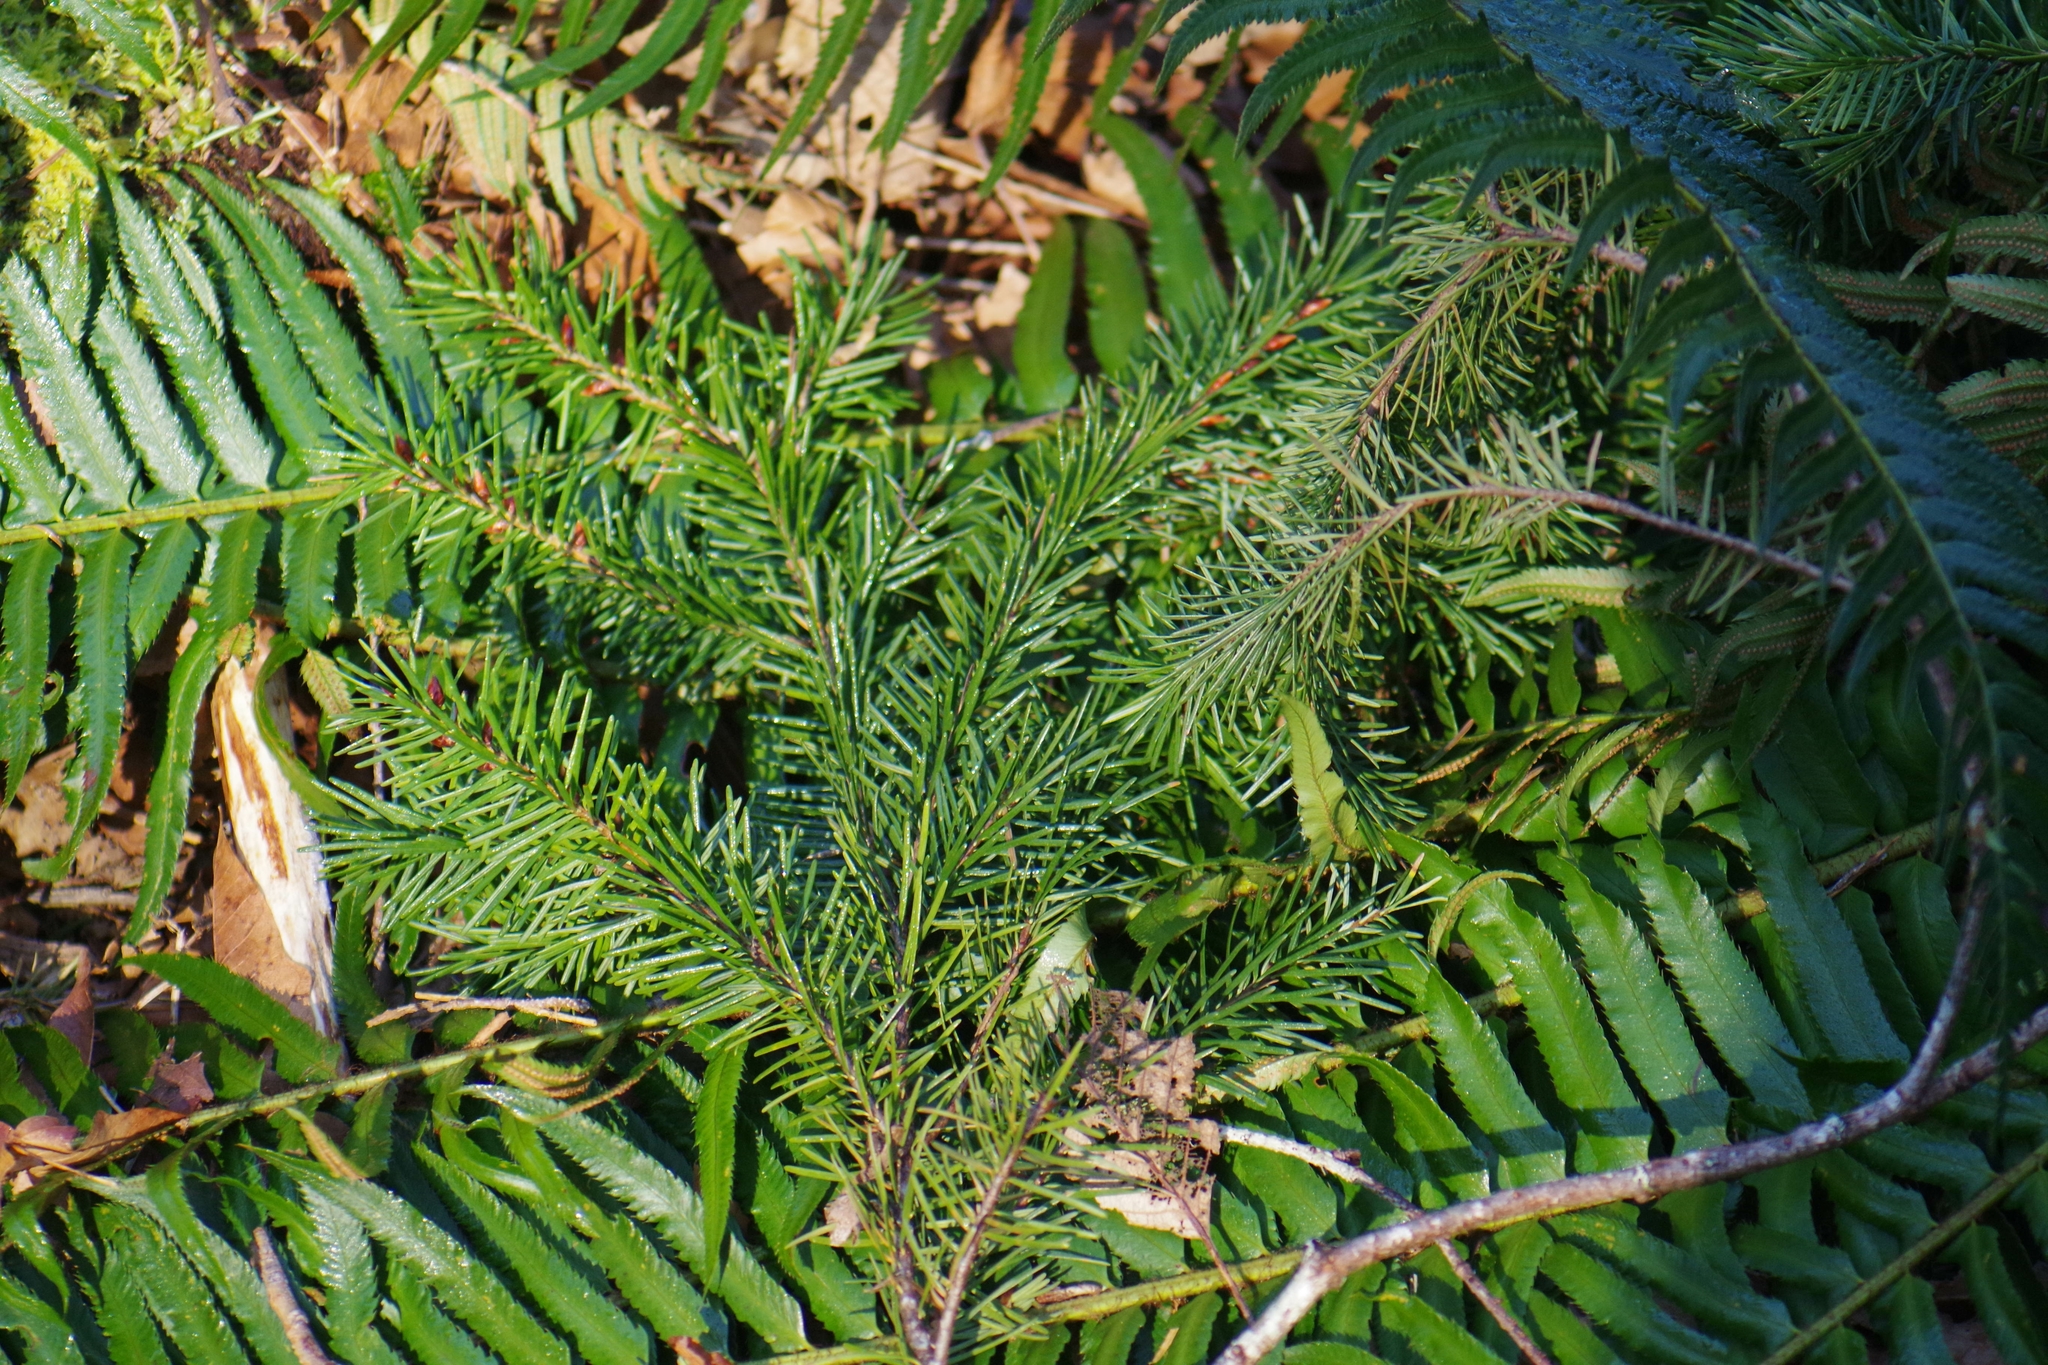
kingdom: Plantae
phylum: Tracheophyta
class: Pinopsida
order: Pinales
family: Pinaceae
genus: Pseudotsuga
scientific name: Pseudotsuga menziesii
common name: Douglas fir
